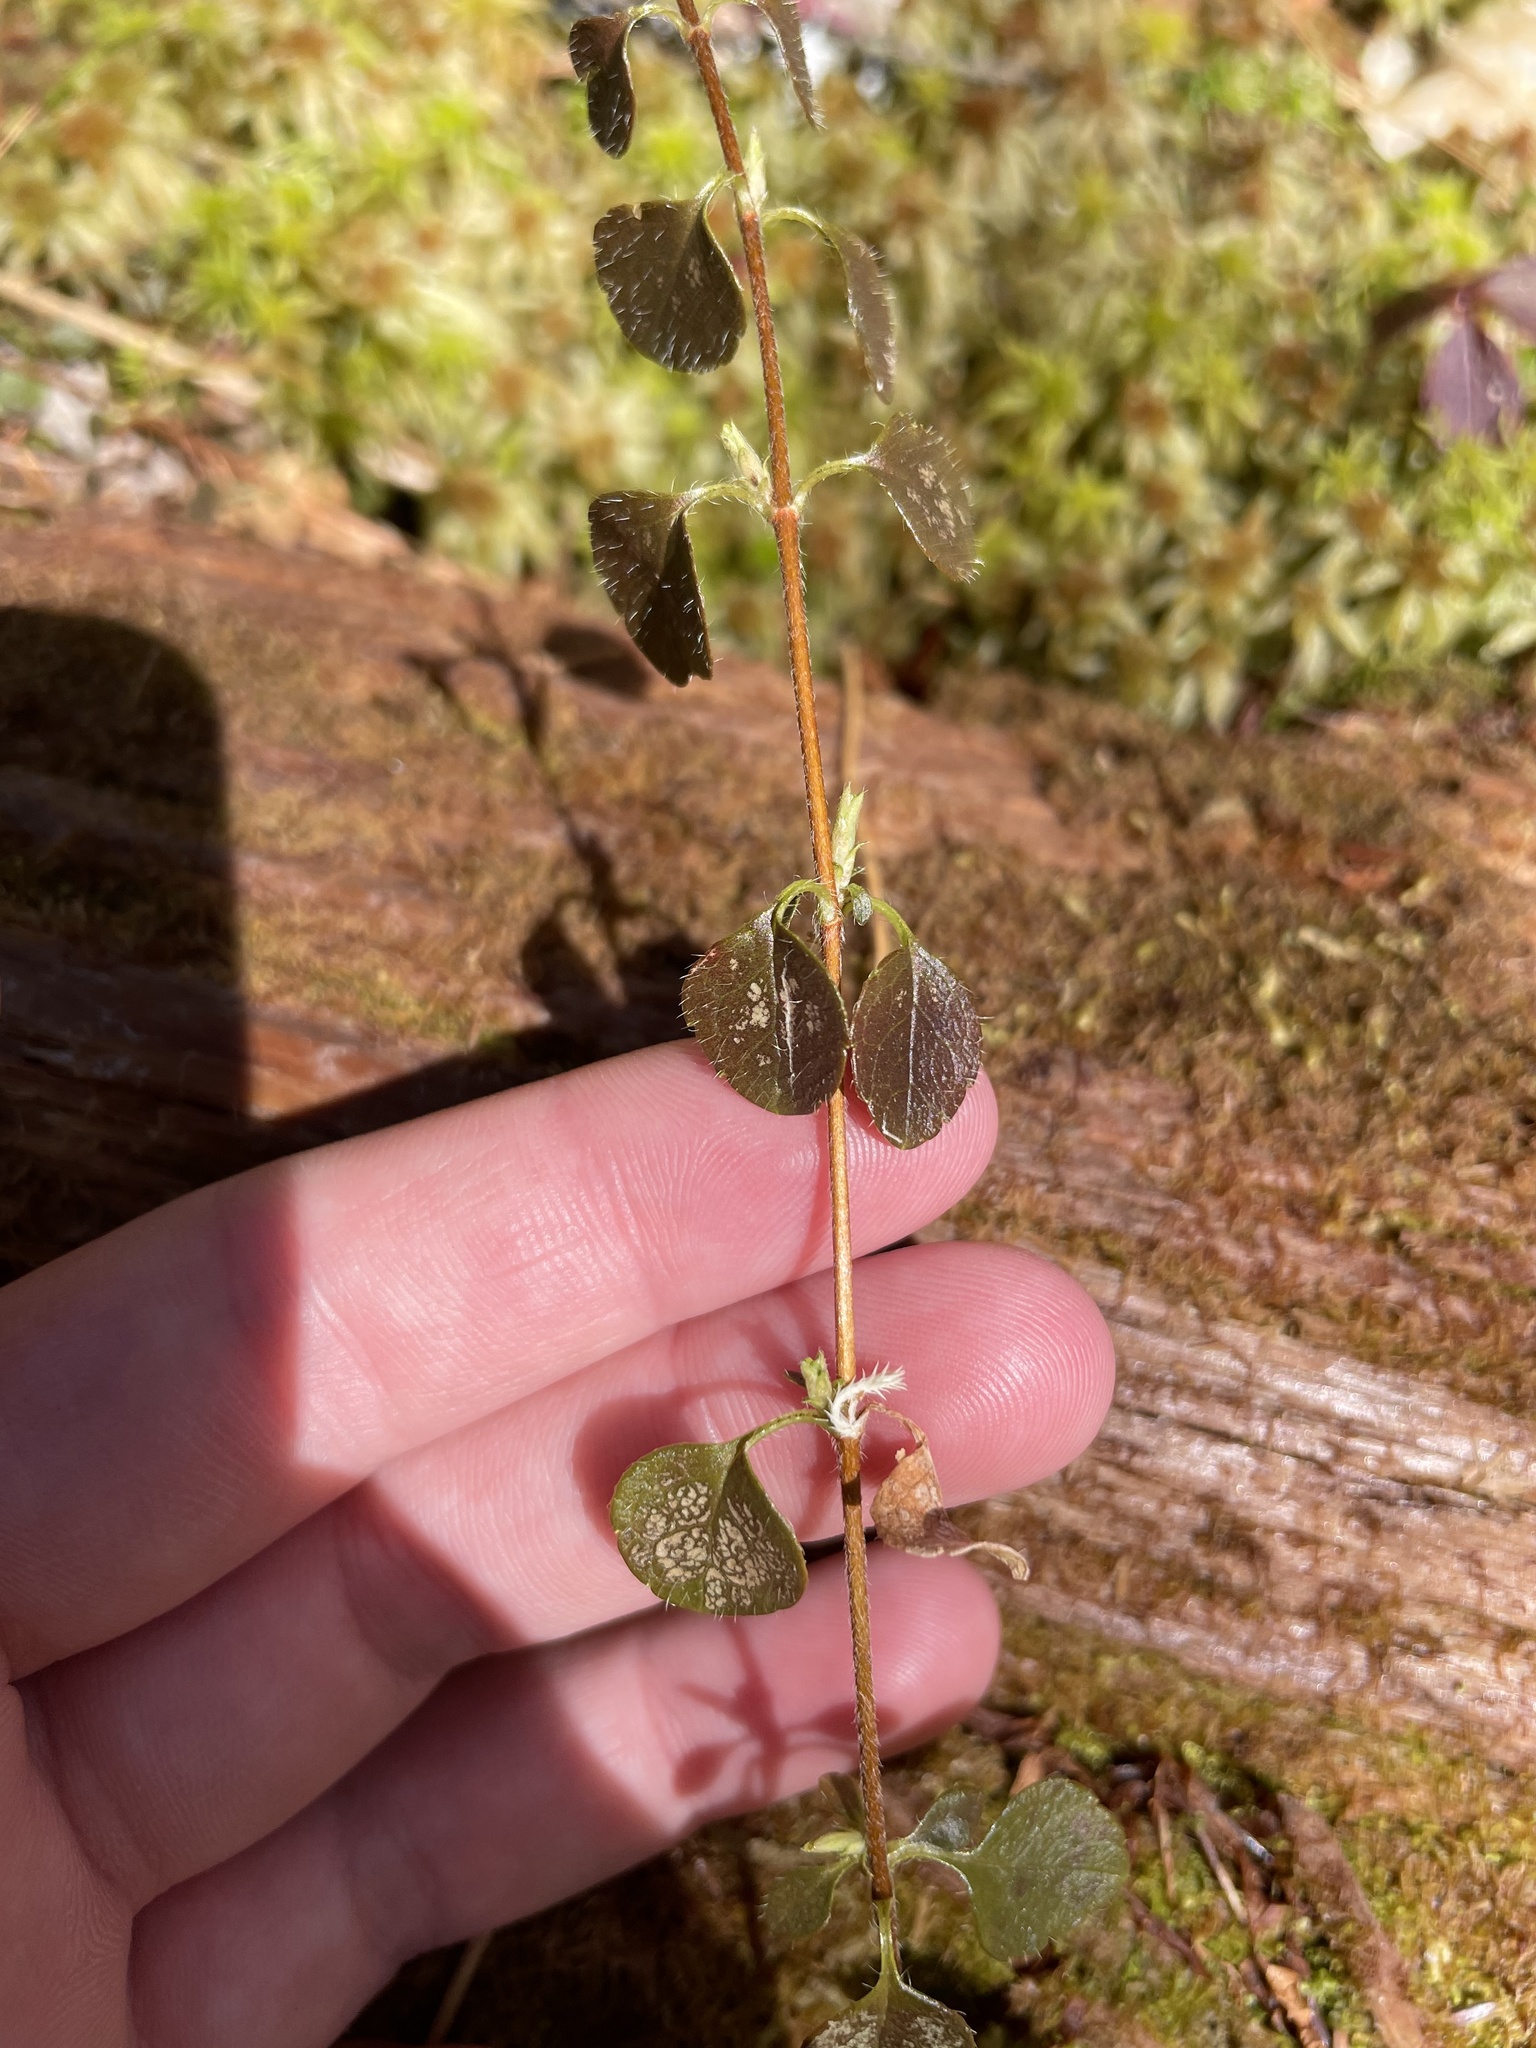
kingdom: Plantae
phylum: Tracheophyta
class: Magnoliopsida
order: Dipsacales
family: Caprifoliaceae
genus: Linnaea
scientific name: Linnaea borealis
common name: Twinflower
